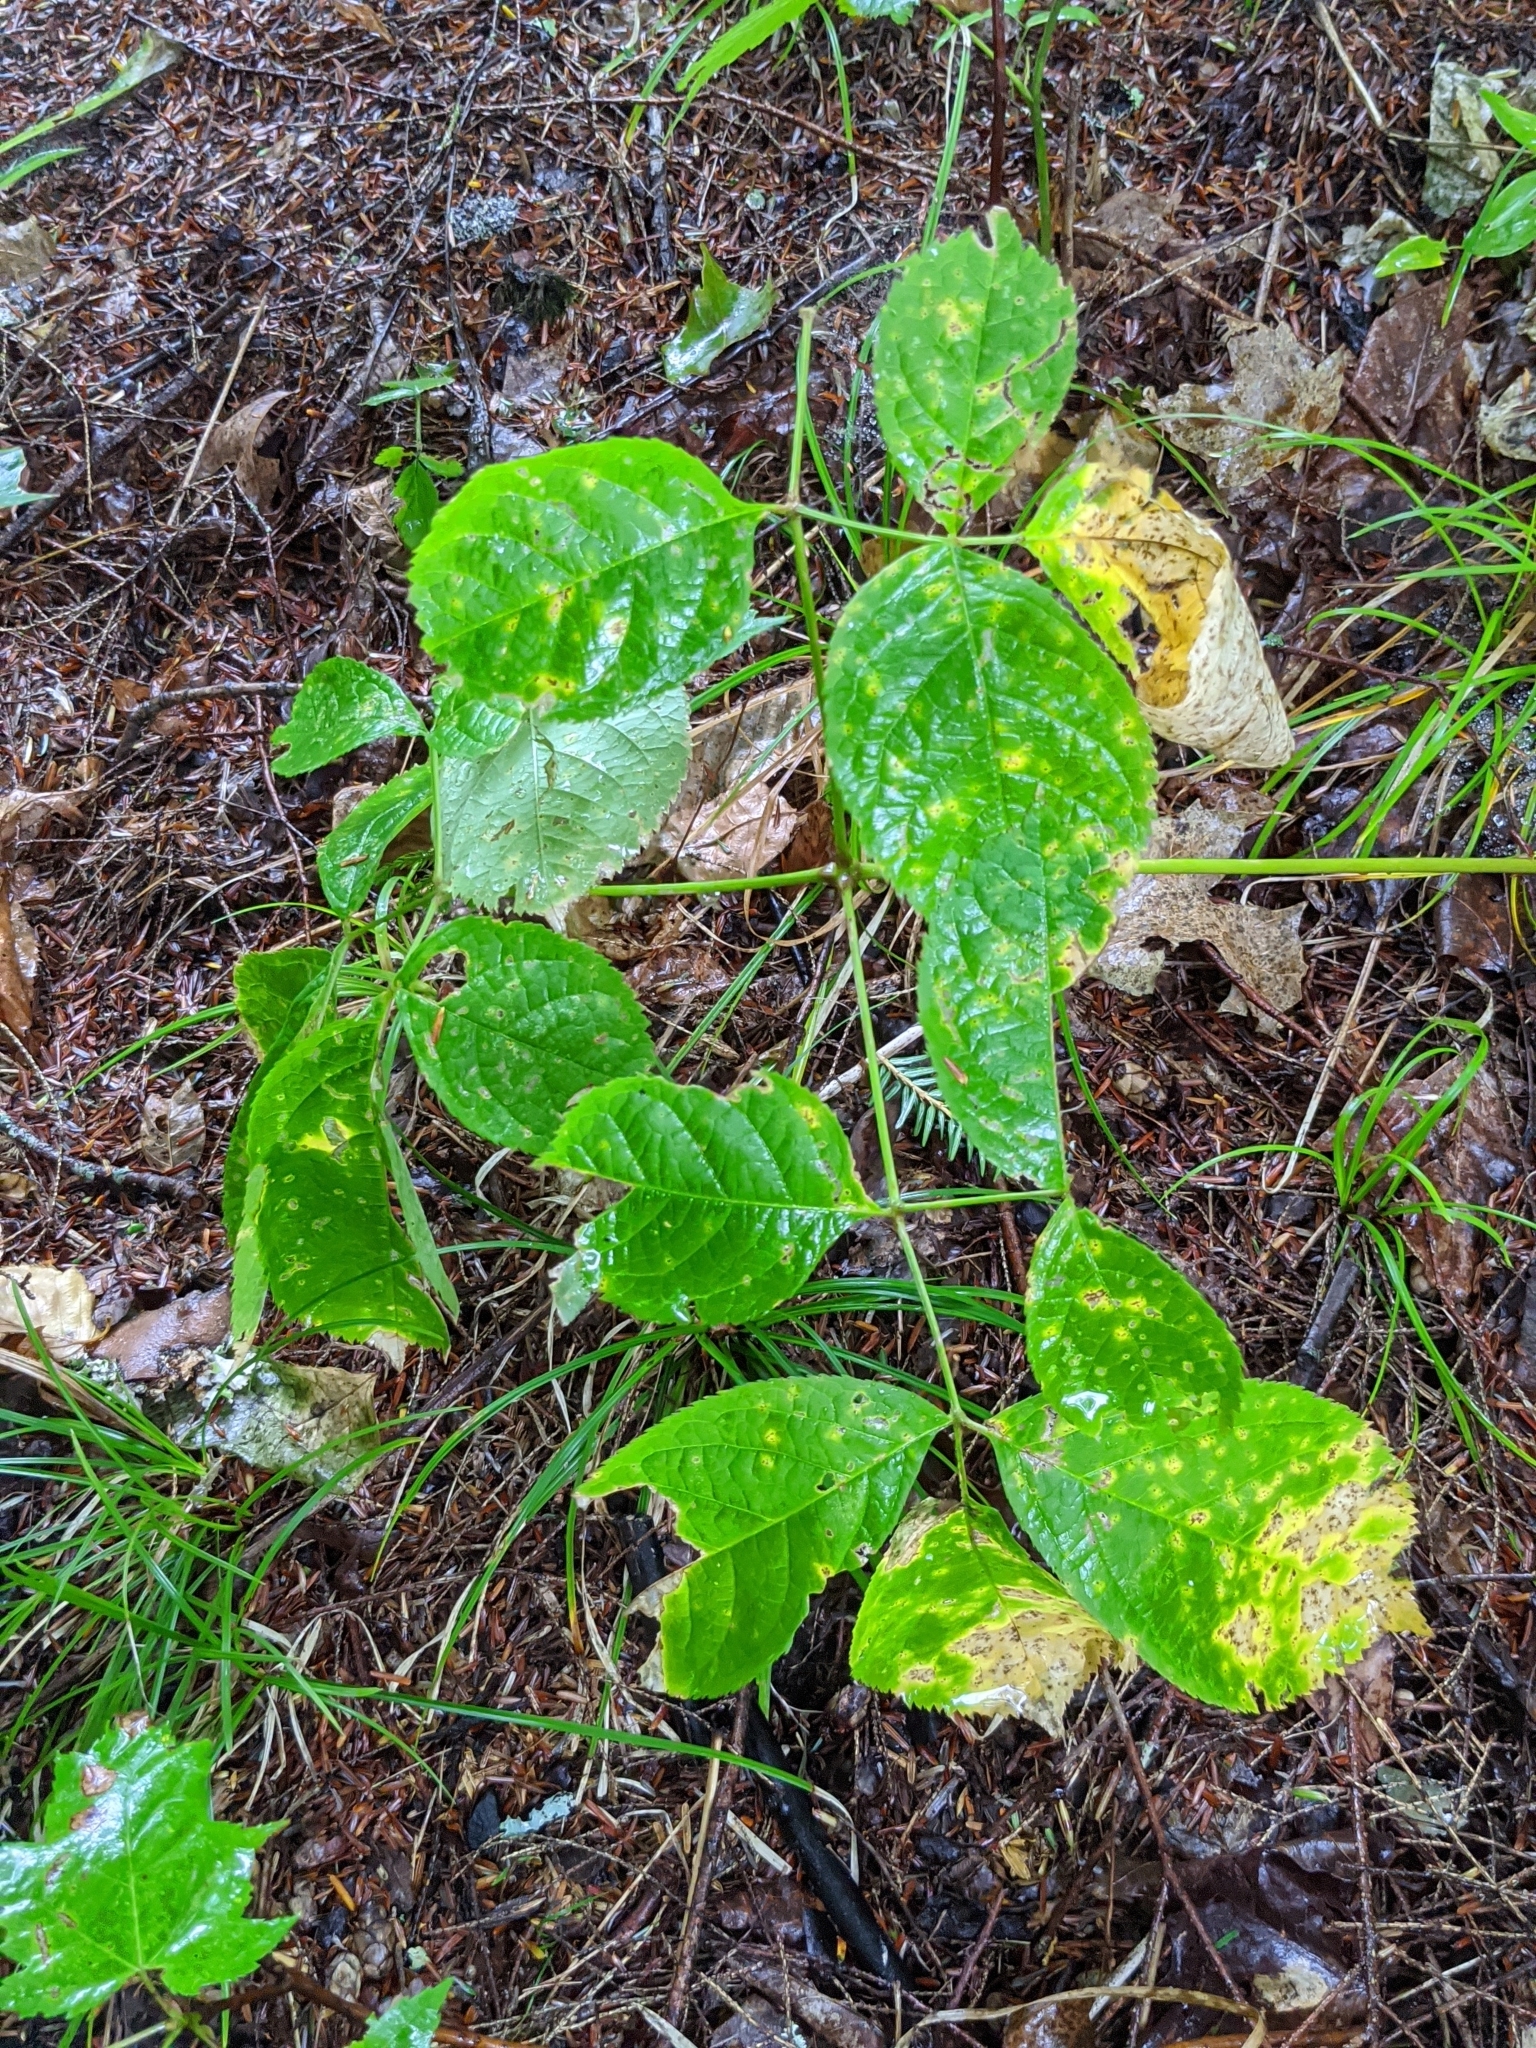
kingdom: Plantae
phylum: Tracheophyta
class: Magnoliopsida
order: Apiales
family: Araliaceae
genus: Aralia
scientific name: Aralia nudicaulis
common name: Wild sarsaparilla
